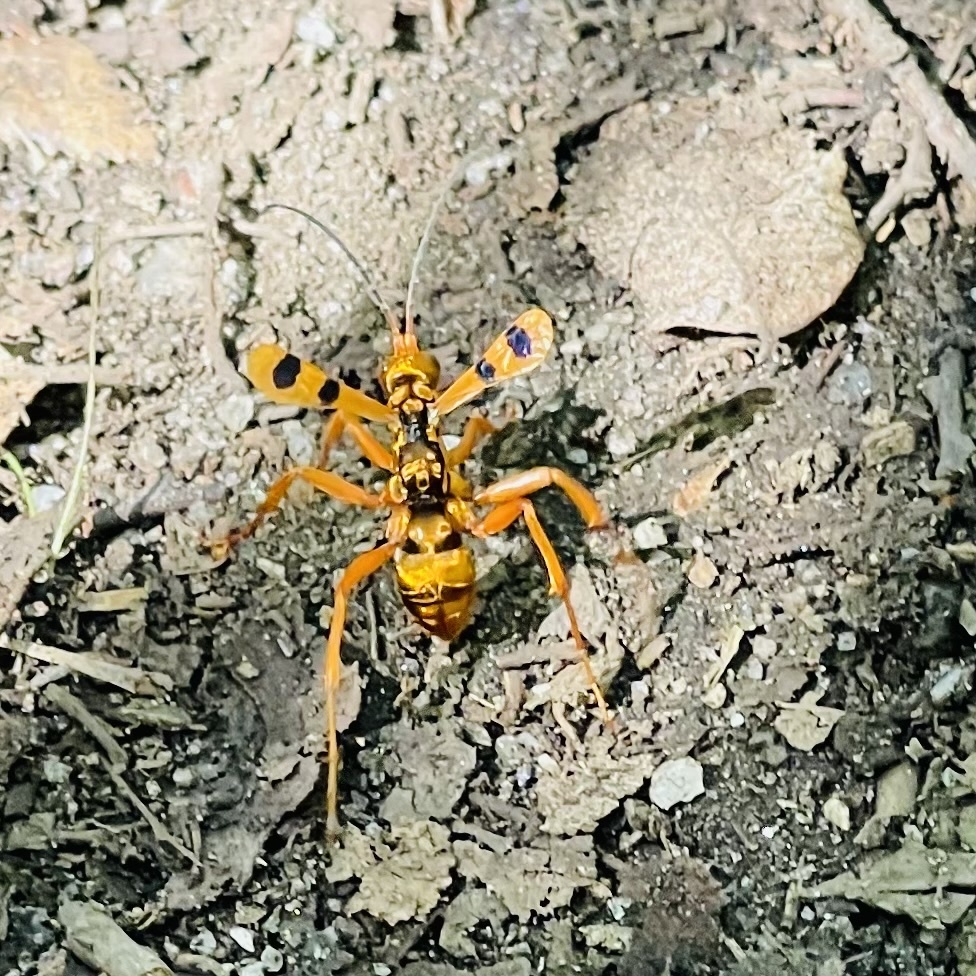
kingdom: Animalia
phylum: Arthropoda
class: Insecta
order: Hymenoptera
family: Pompilidae
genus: Sphictostethus
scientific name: Sphictostethus gravesii
